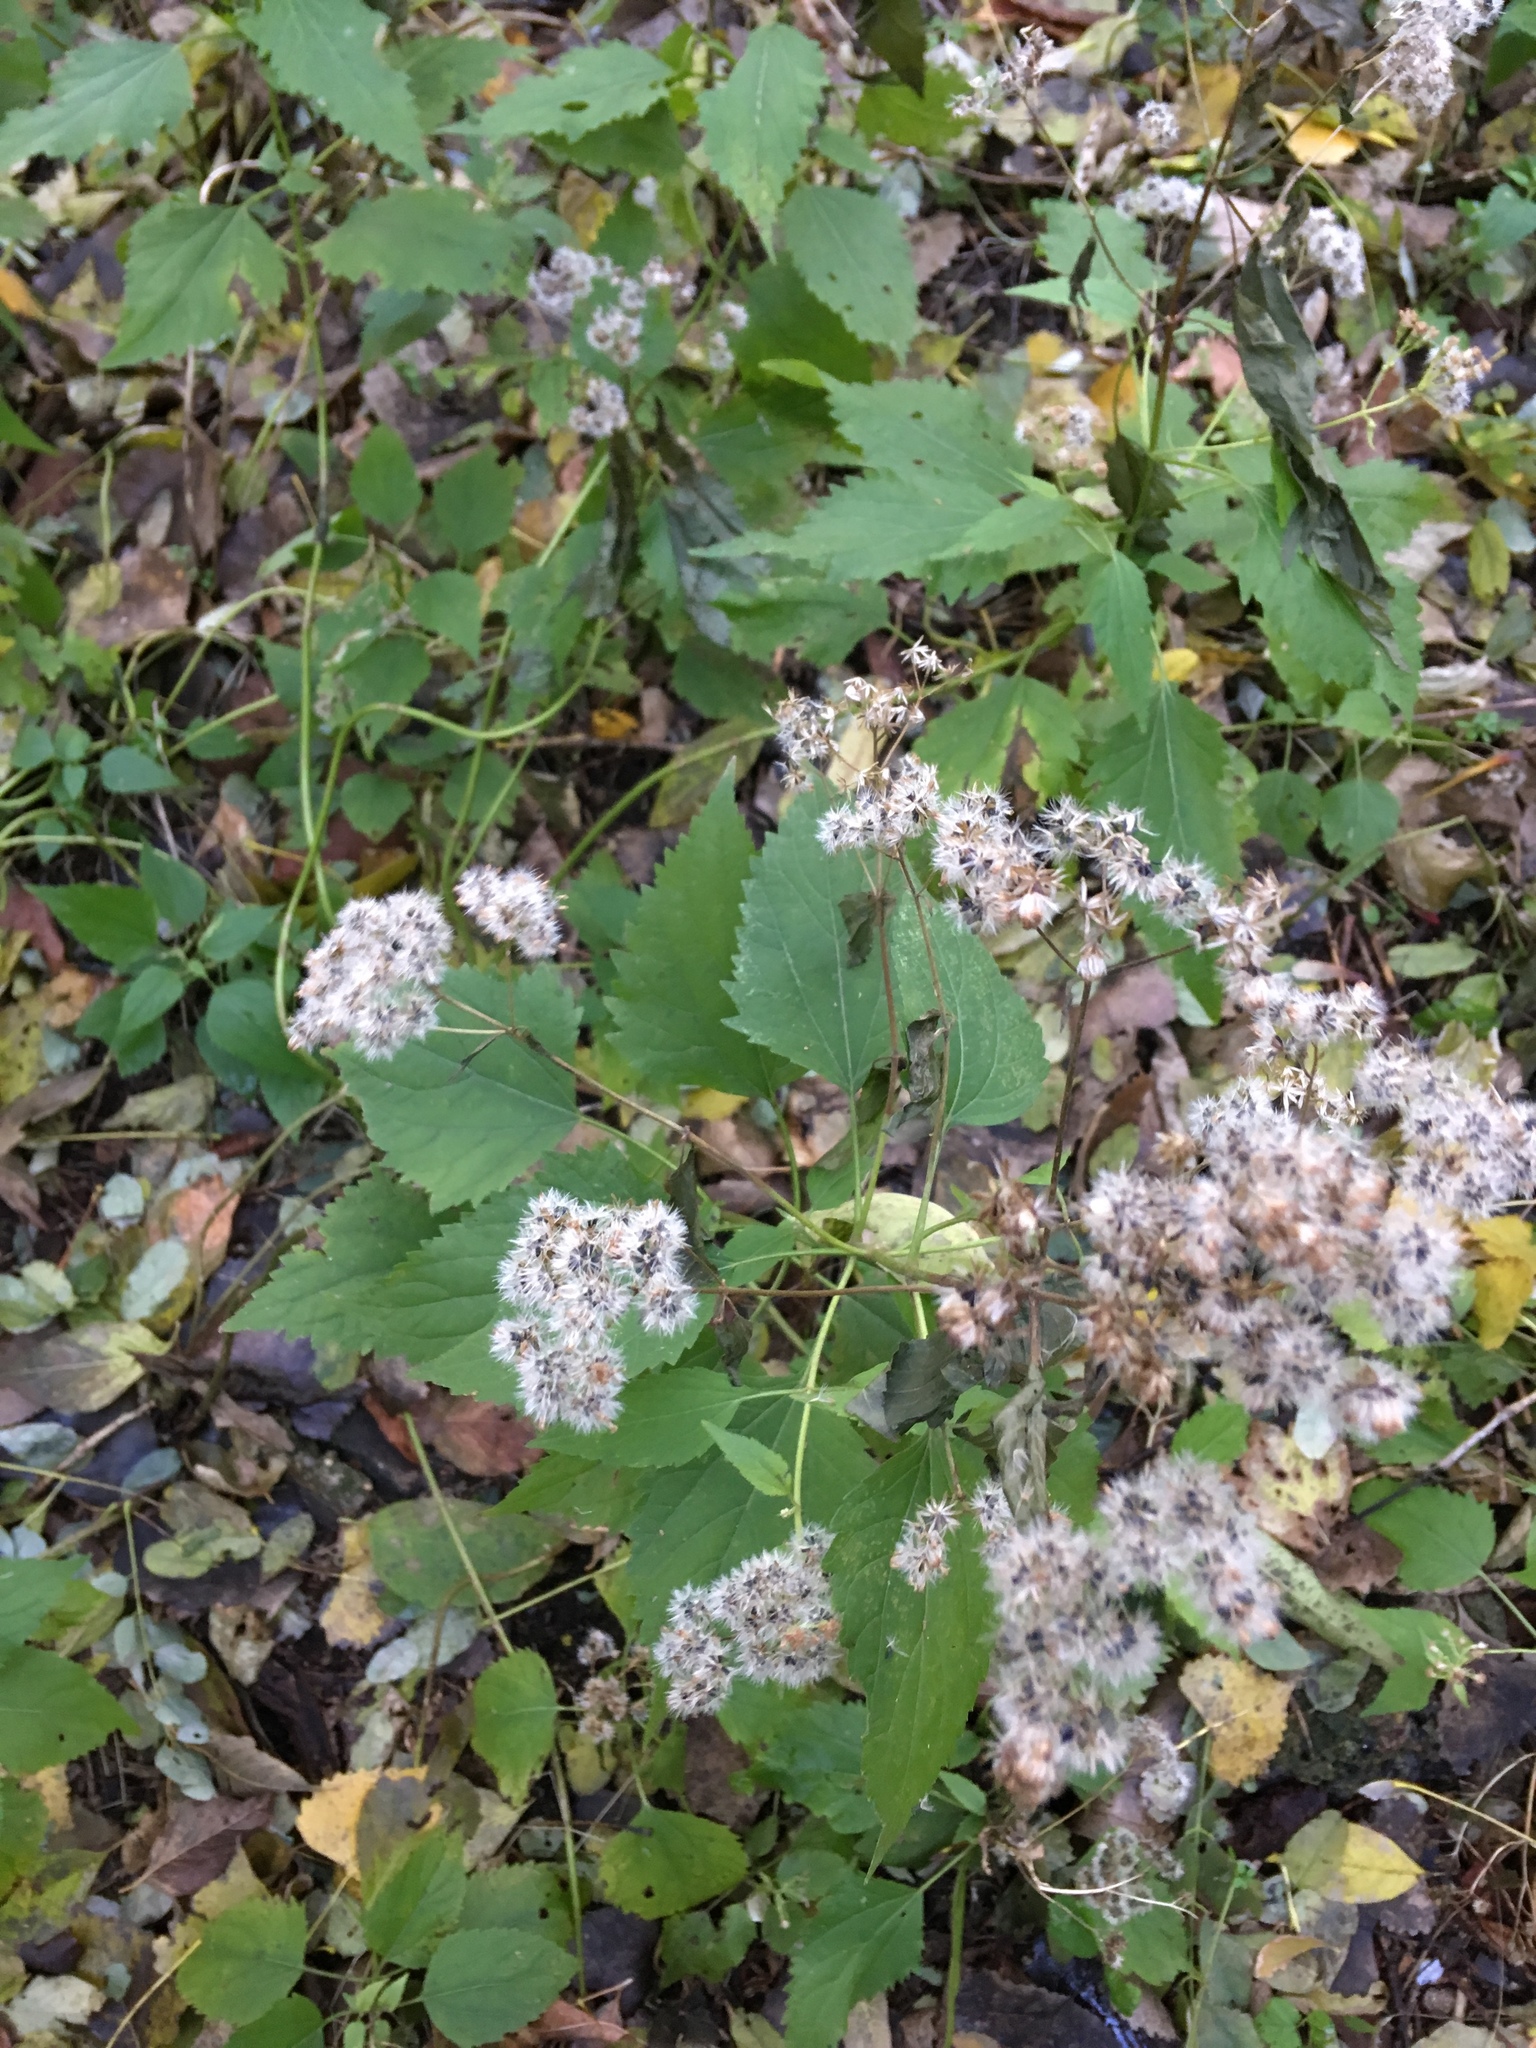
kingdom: Plantae
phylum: Tracheophyta
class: Magnoliopsida
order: Asterales
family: Asteraceae
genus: Ageratina
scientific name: Ageratina altissima
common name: White snakeroot
